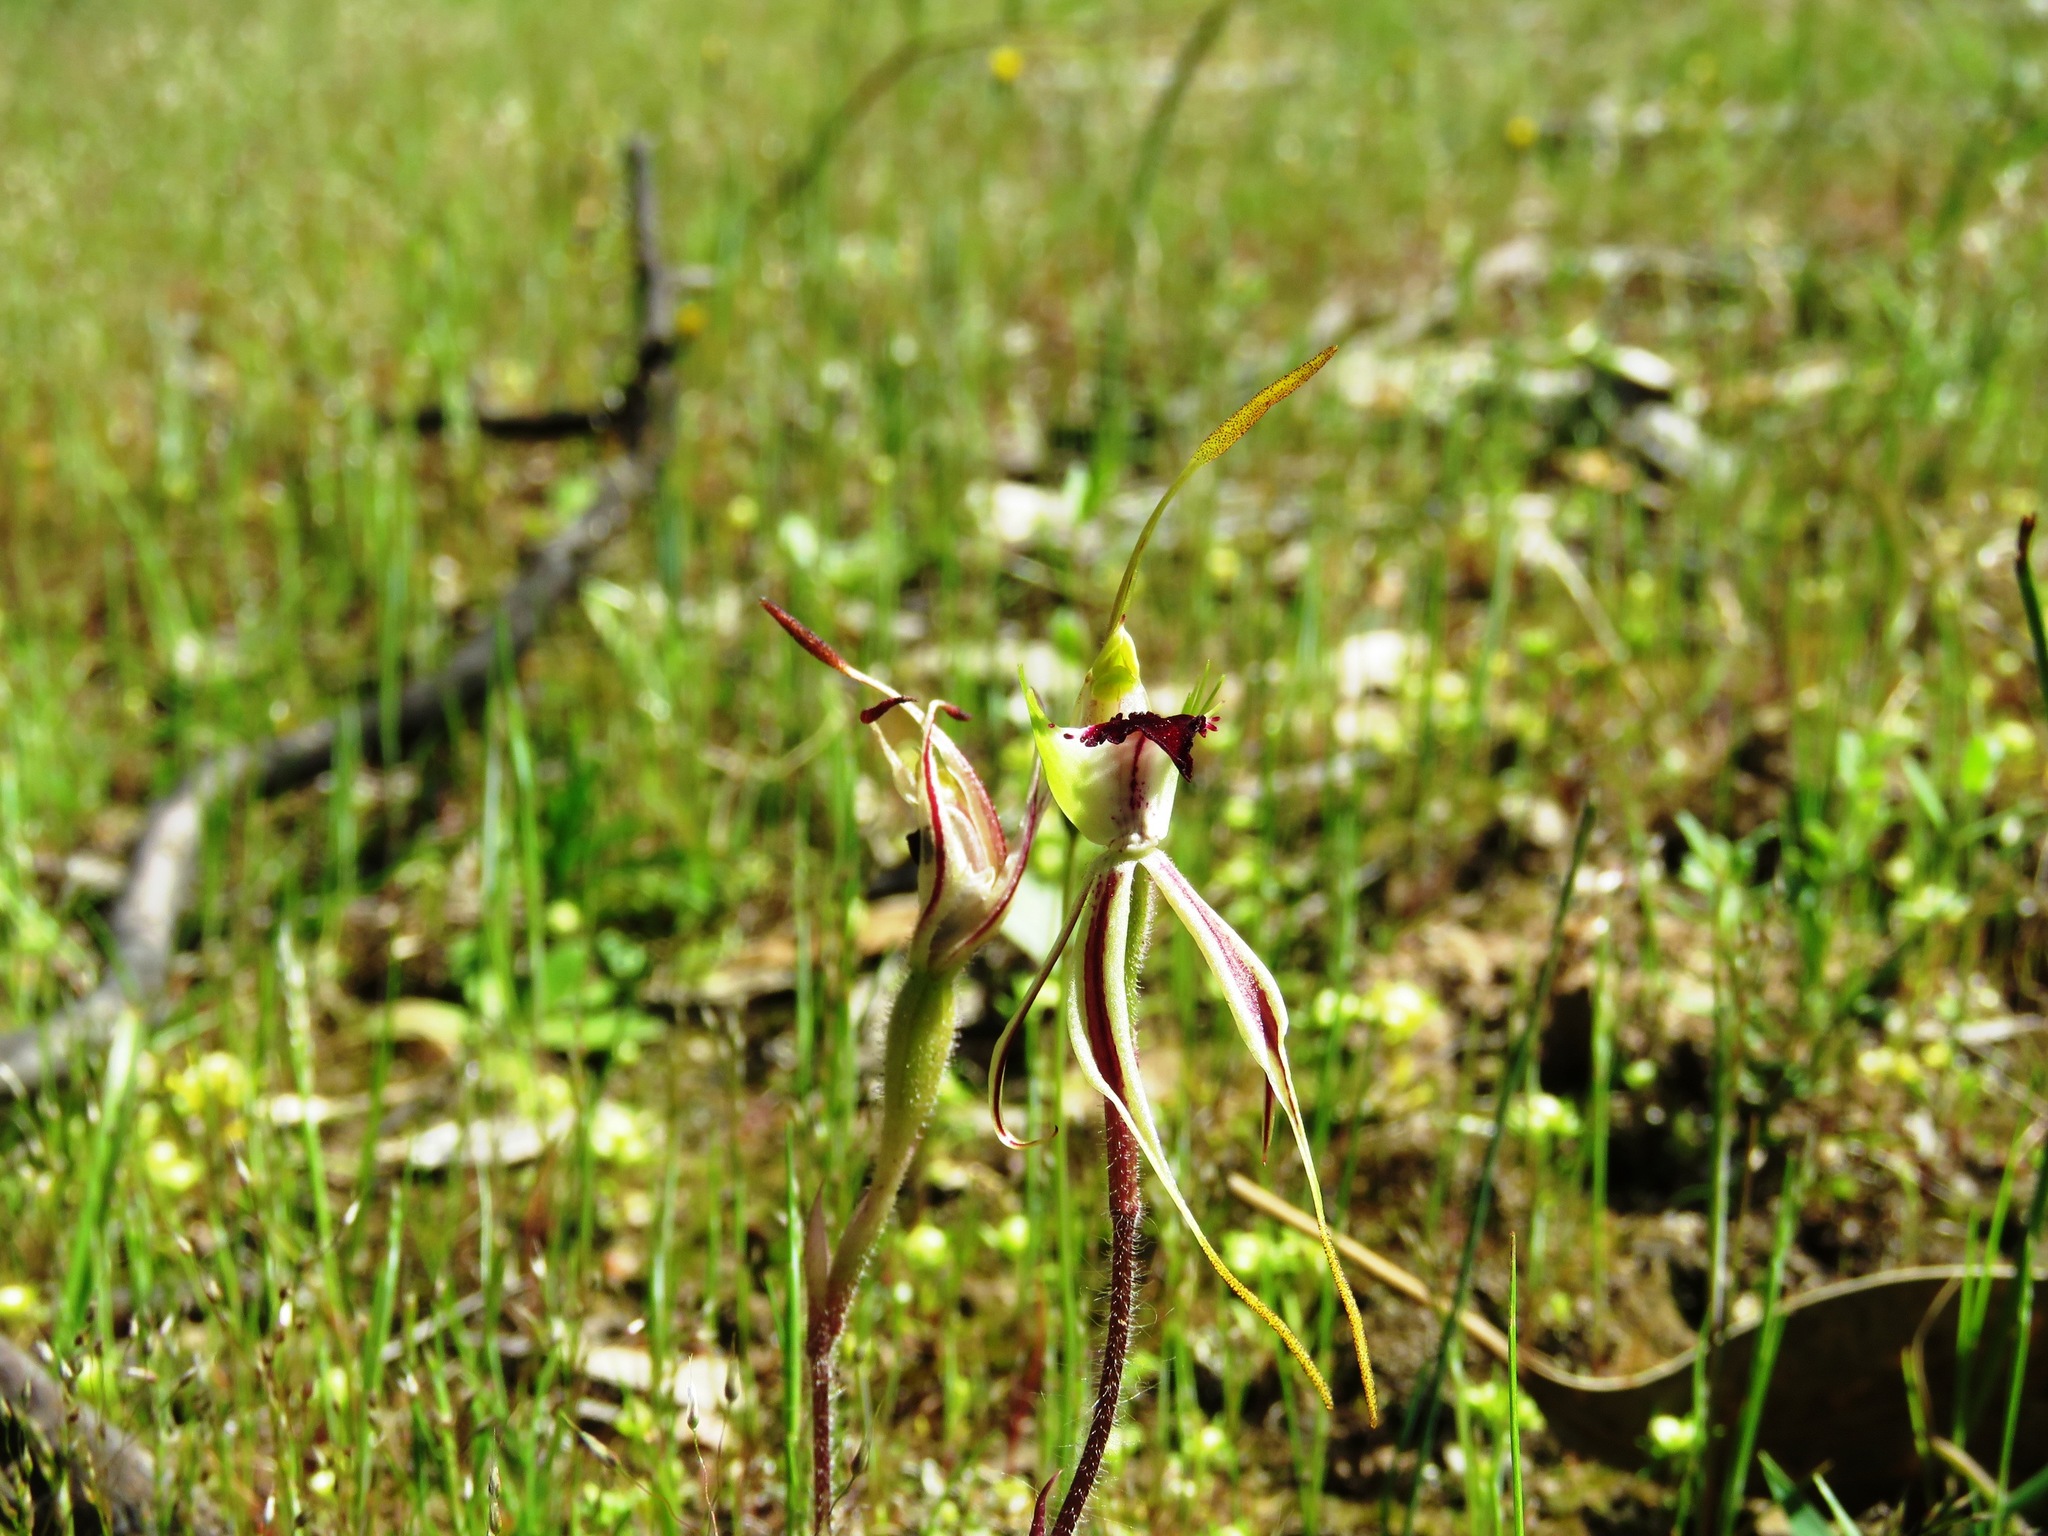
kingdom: Plantae
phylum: Tracheophyta
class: Liliopsida
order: Asparagales
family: Orchidaceae
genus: Caladenia
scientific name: Caladenia parva
